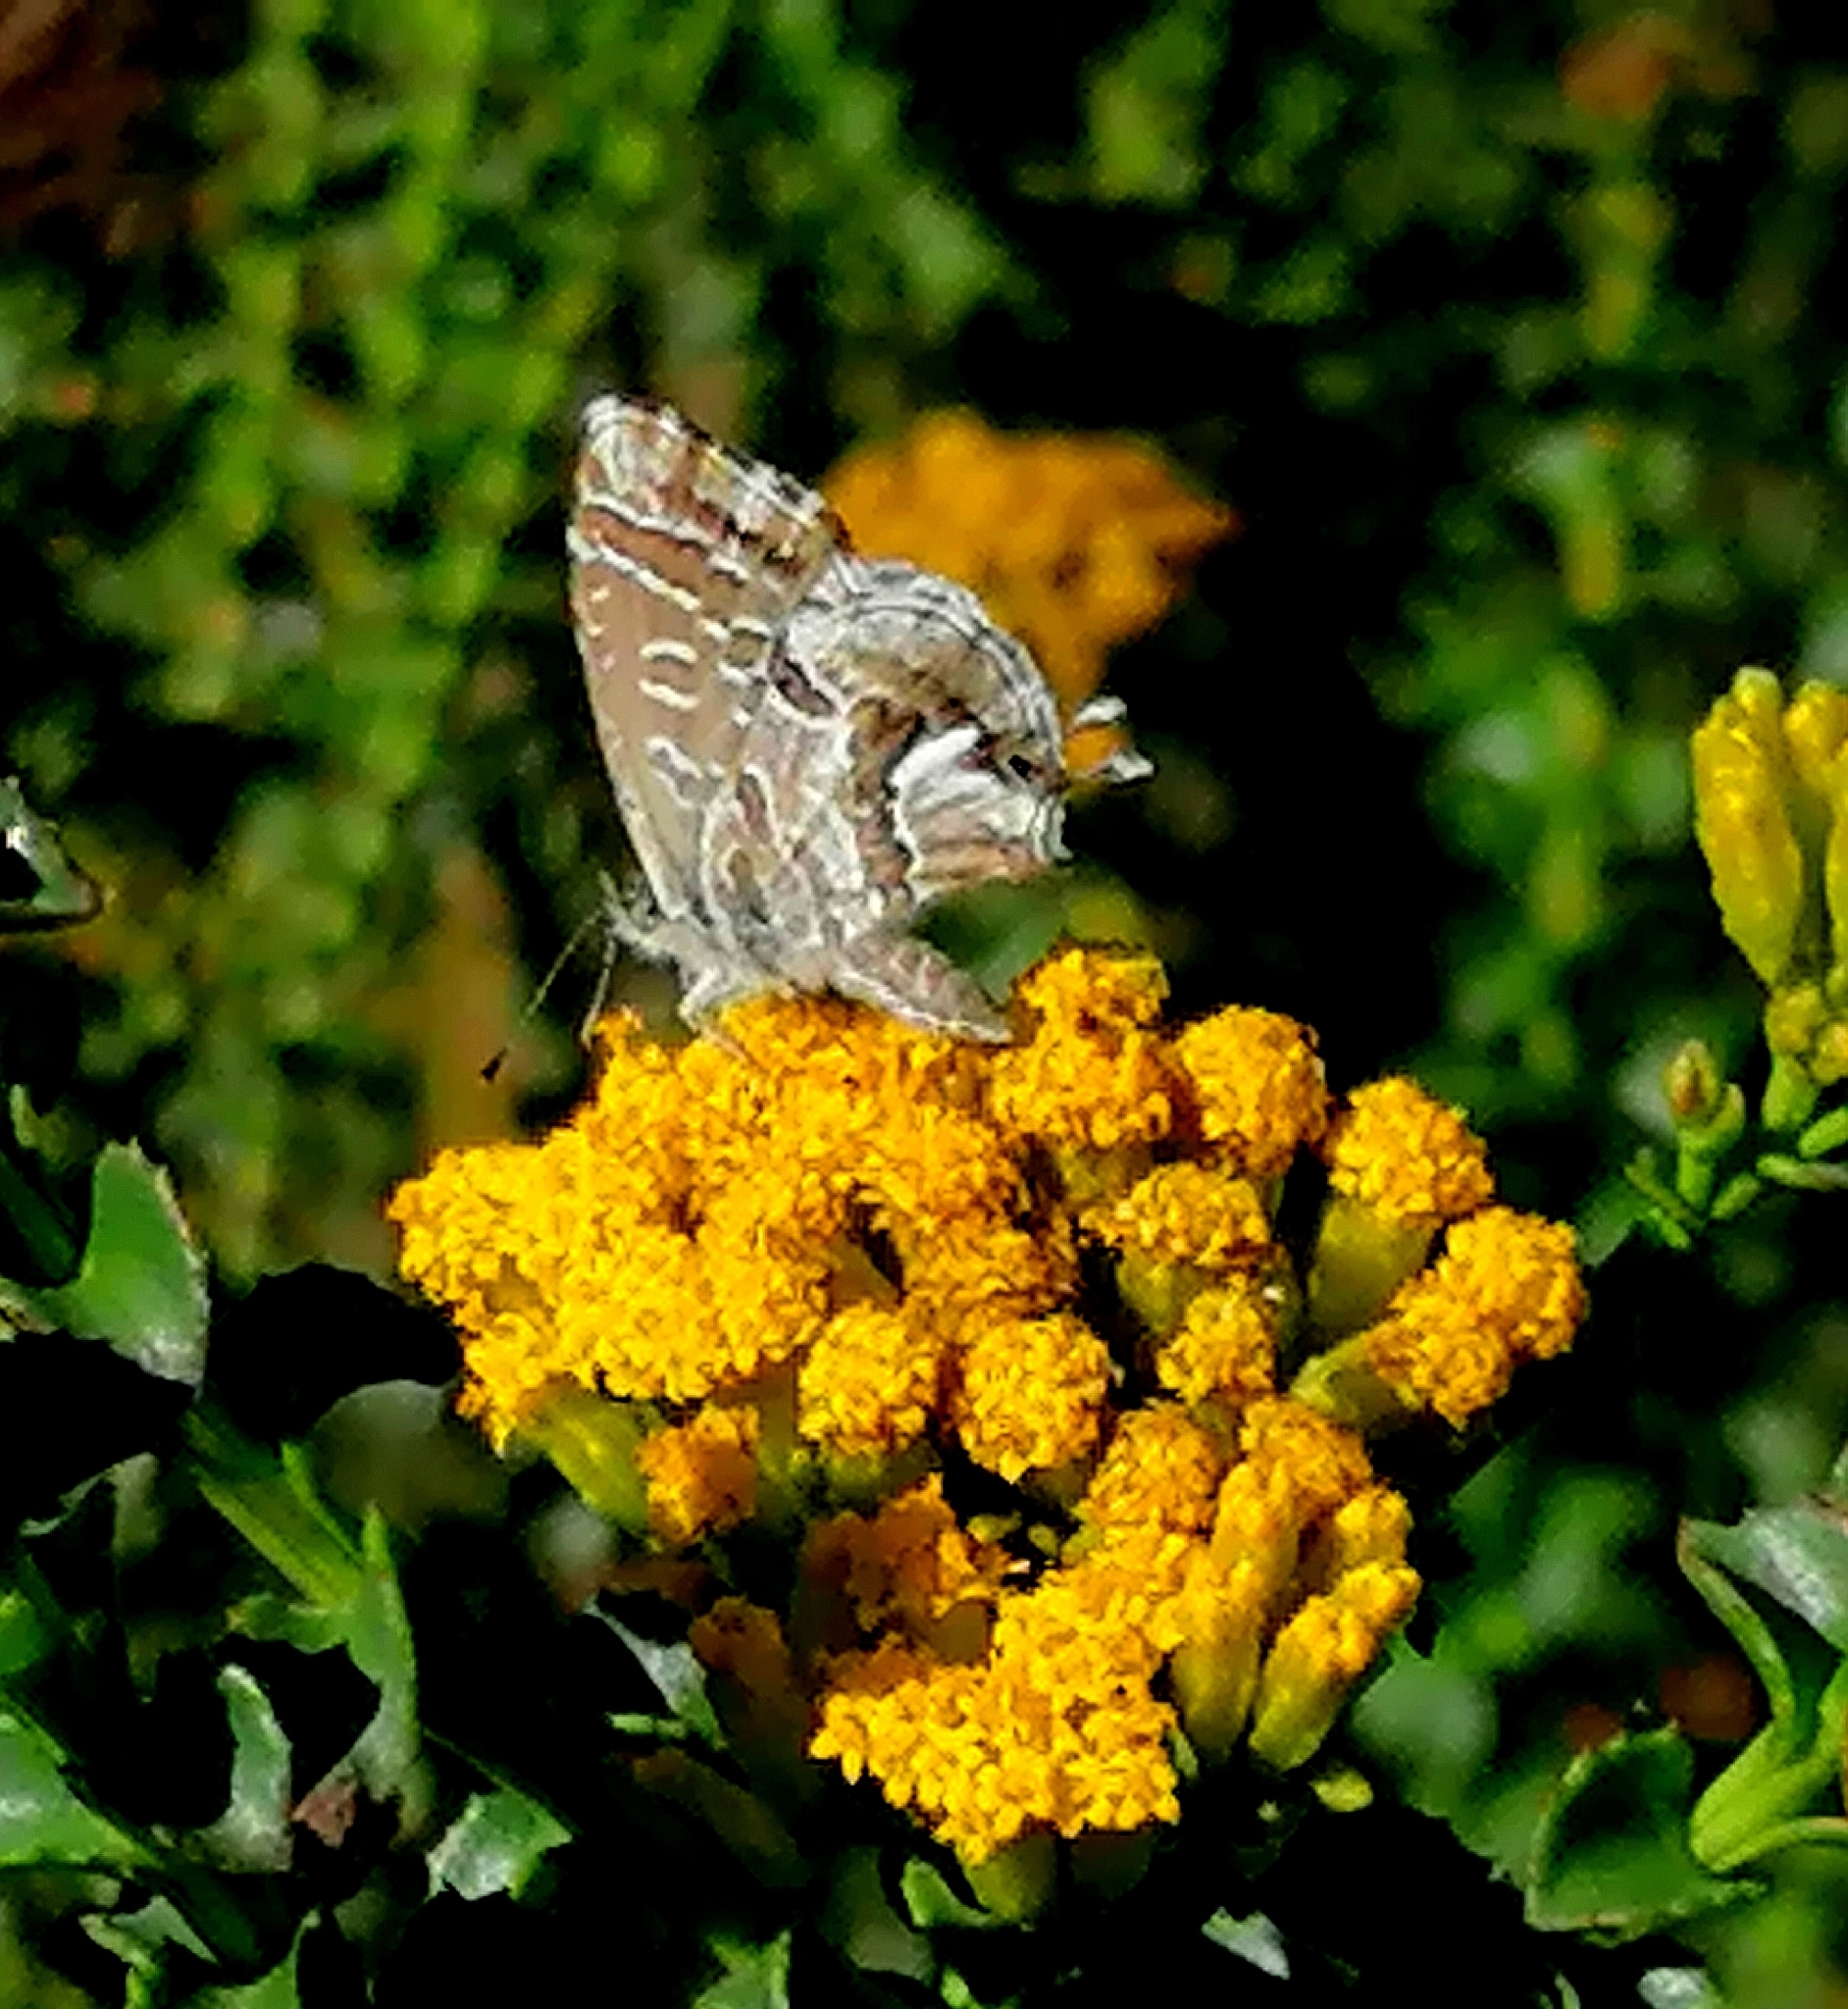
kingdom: Animalia
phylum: Arthropoda
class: Insecta
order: Lepidoptera
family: Lycaenidae
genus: Cacyreus
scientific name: Cacyreus marshalli
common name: Geranium bronze
